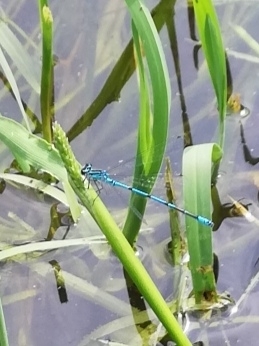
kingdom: Animalia
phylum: Arthropoda
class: Insecta
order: Odonata
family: Coenagrionidae
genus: Coenagrion
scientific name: Coenagrion puella
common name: Azure damselfly
